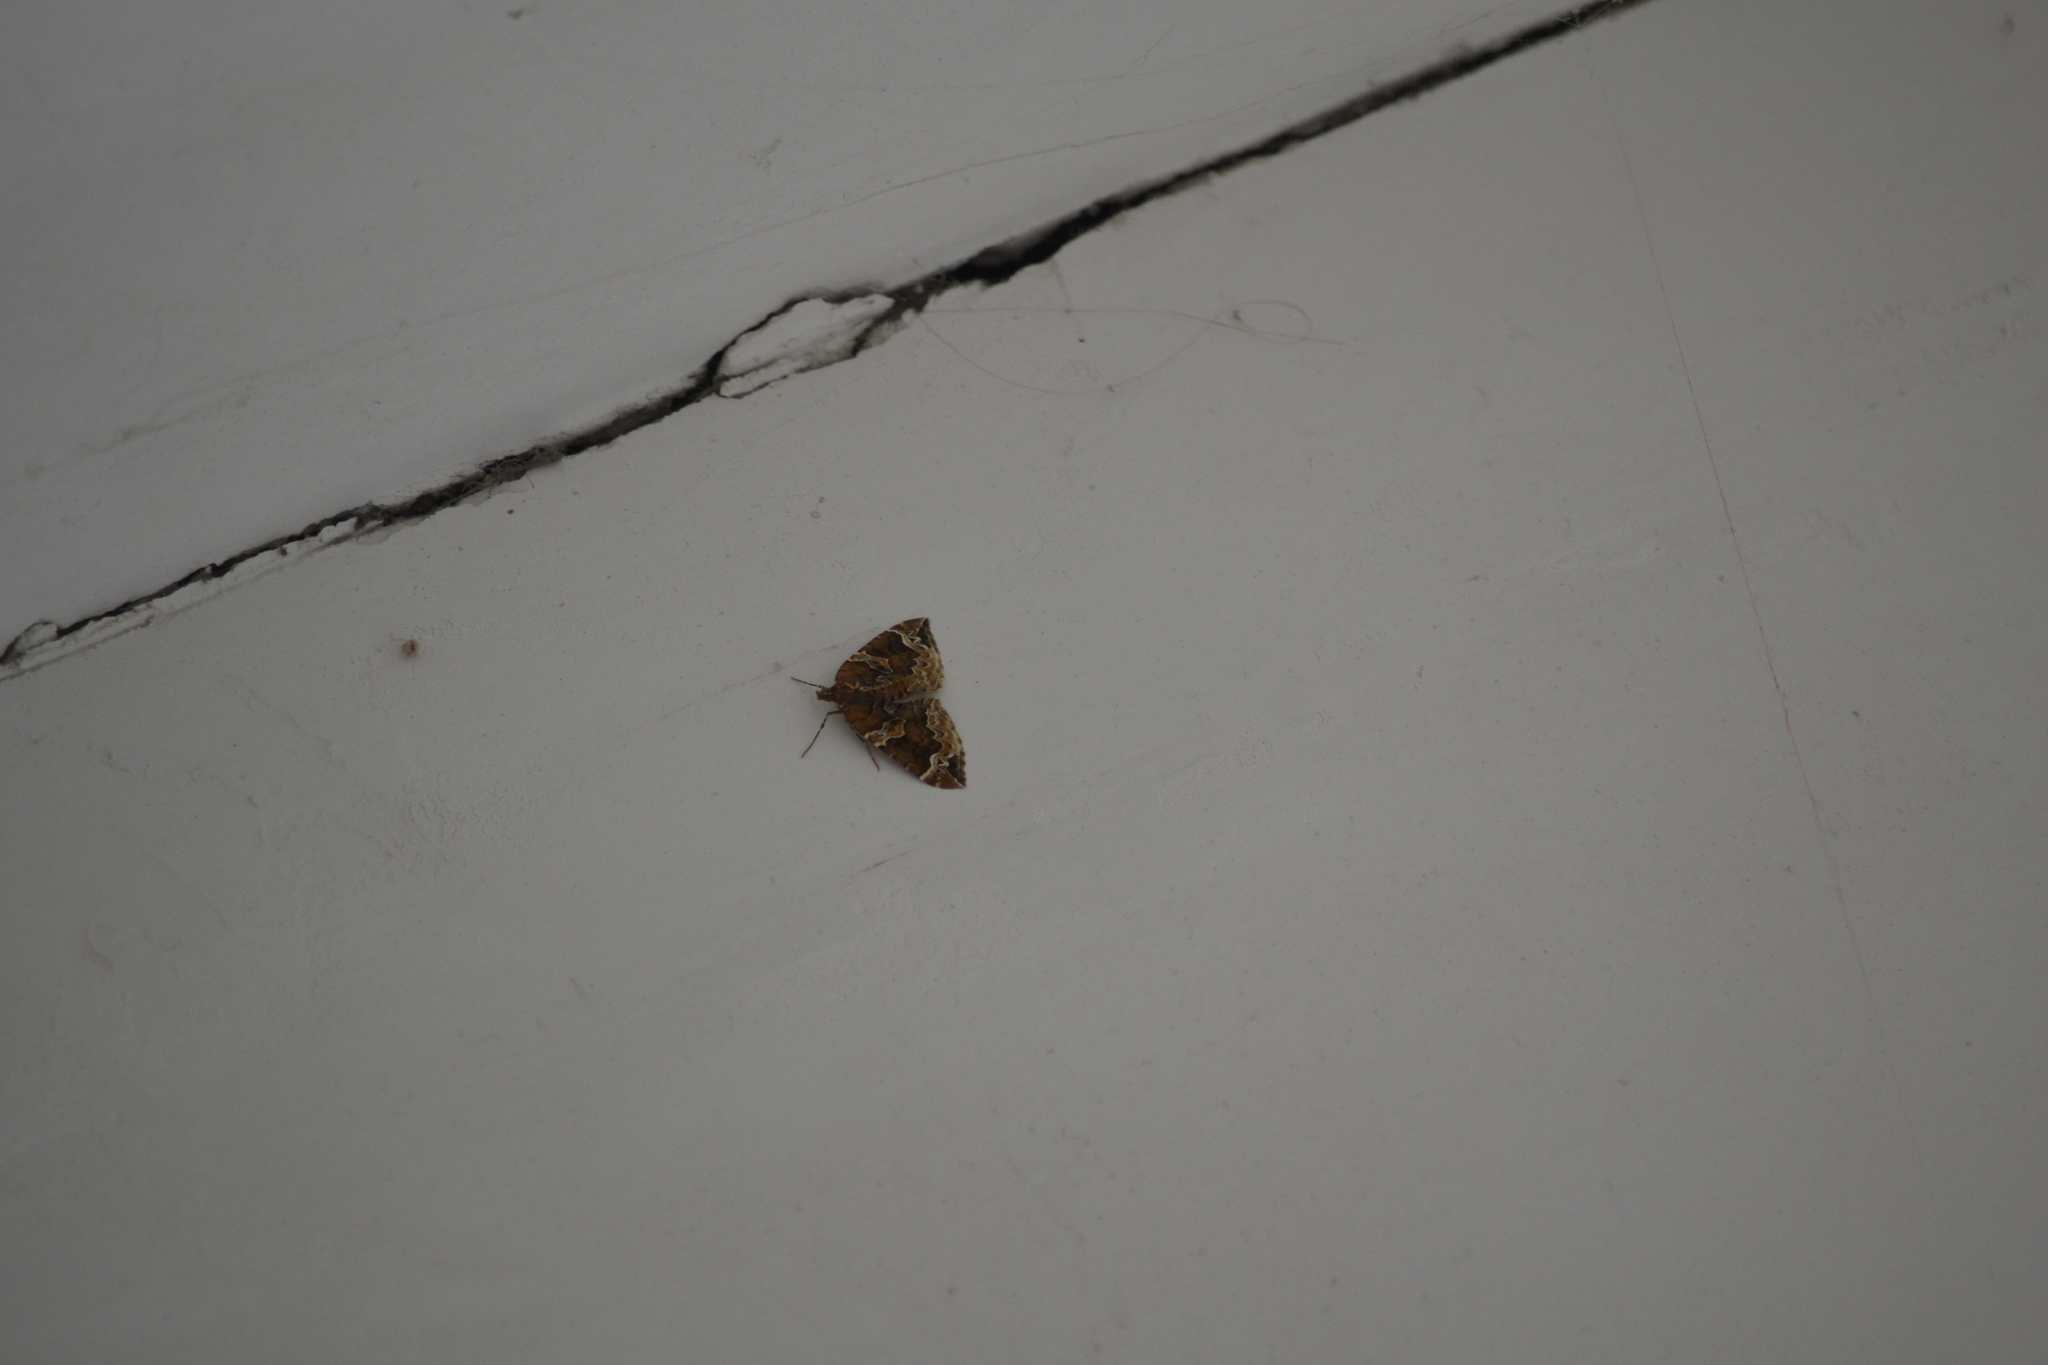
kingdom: Animalia
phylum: Arthropoda
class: Insecta
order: Lepidoptera
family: Geometridae
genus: Eulithis
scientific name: Eulithis prunata
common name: Phoenix
